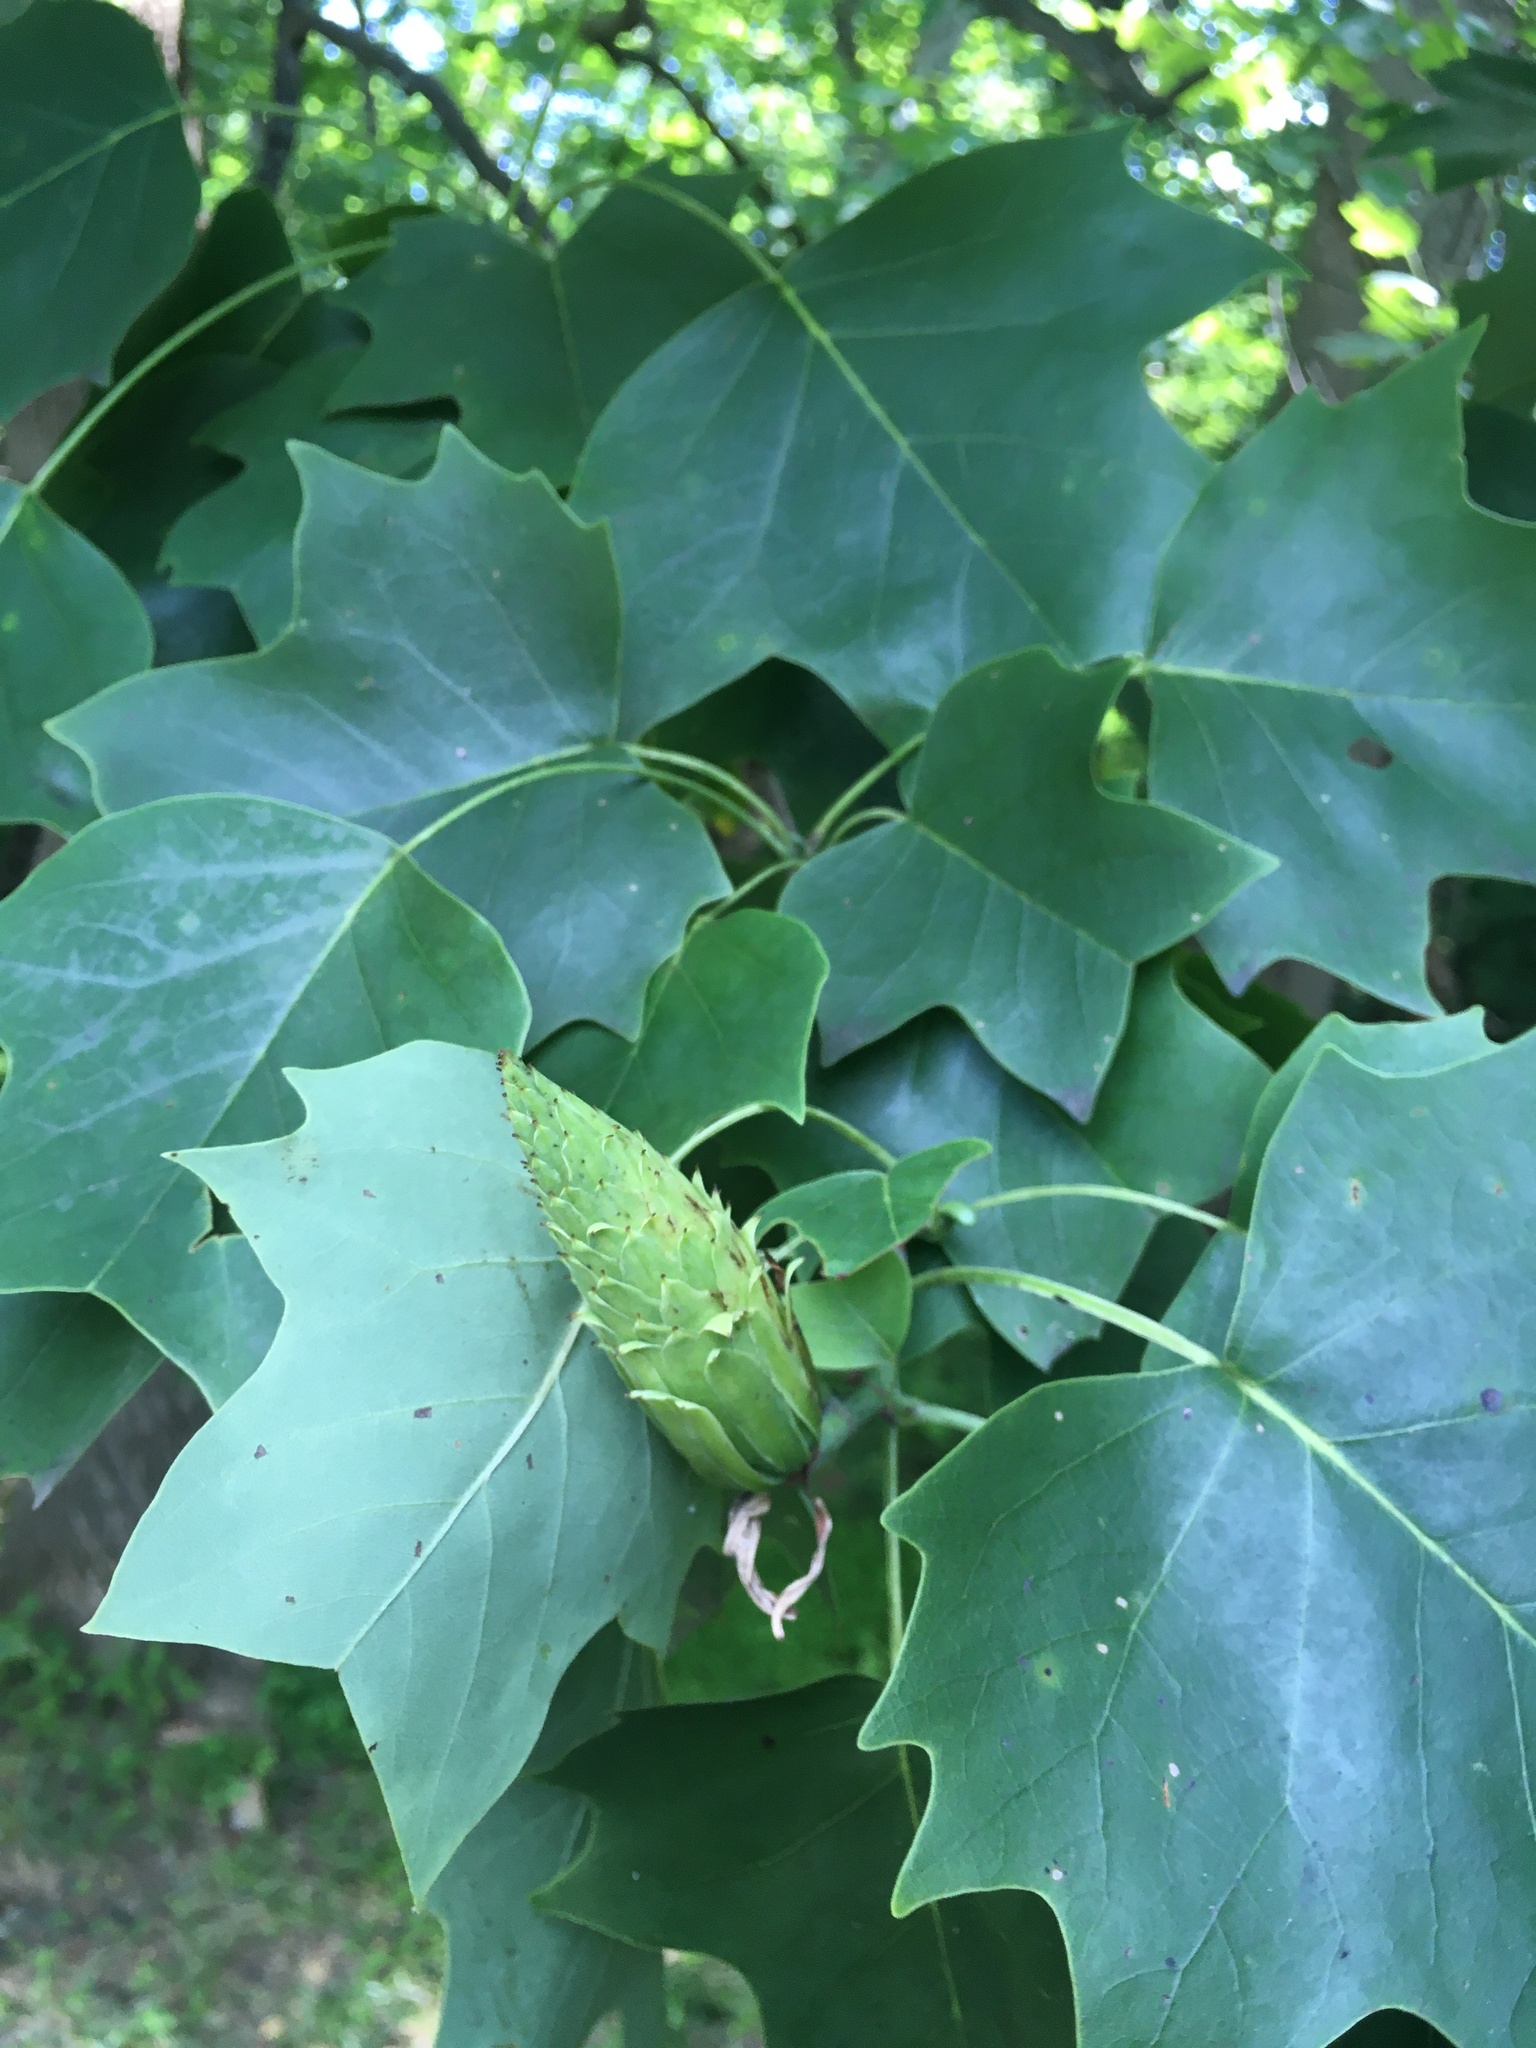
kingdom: Plantae
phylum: Tracheophyta
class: Magnoliopsida
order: Magnoliales
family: Magnoliaceae
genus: Liriodendron
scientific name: Liriodendron tulipifera
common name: Tulip tree
